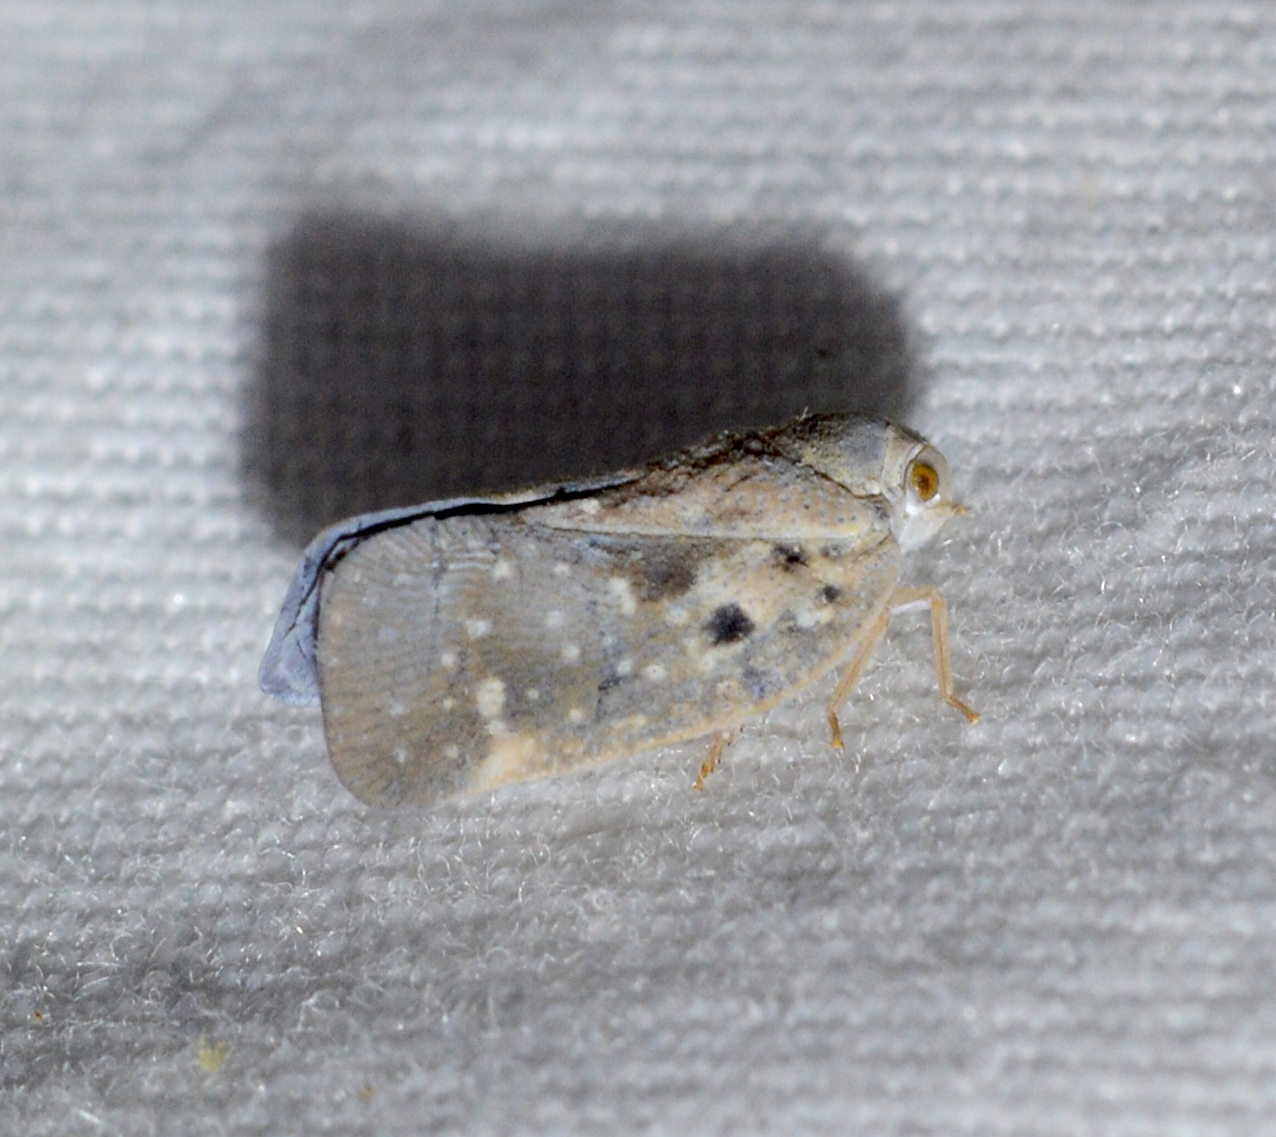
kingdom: Animalia
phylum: Arthropoda
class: Insecta
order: Hemiptera
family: Flatidae
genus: Metcalfa
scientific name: Metcalfa pruinosa
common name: Citrus flatid planthopper
